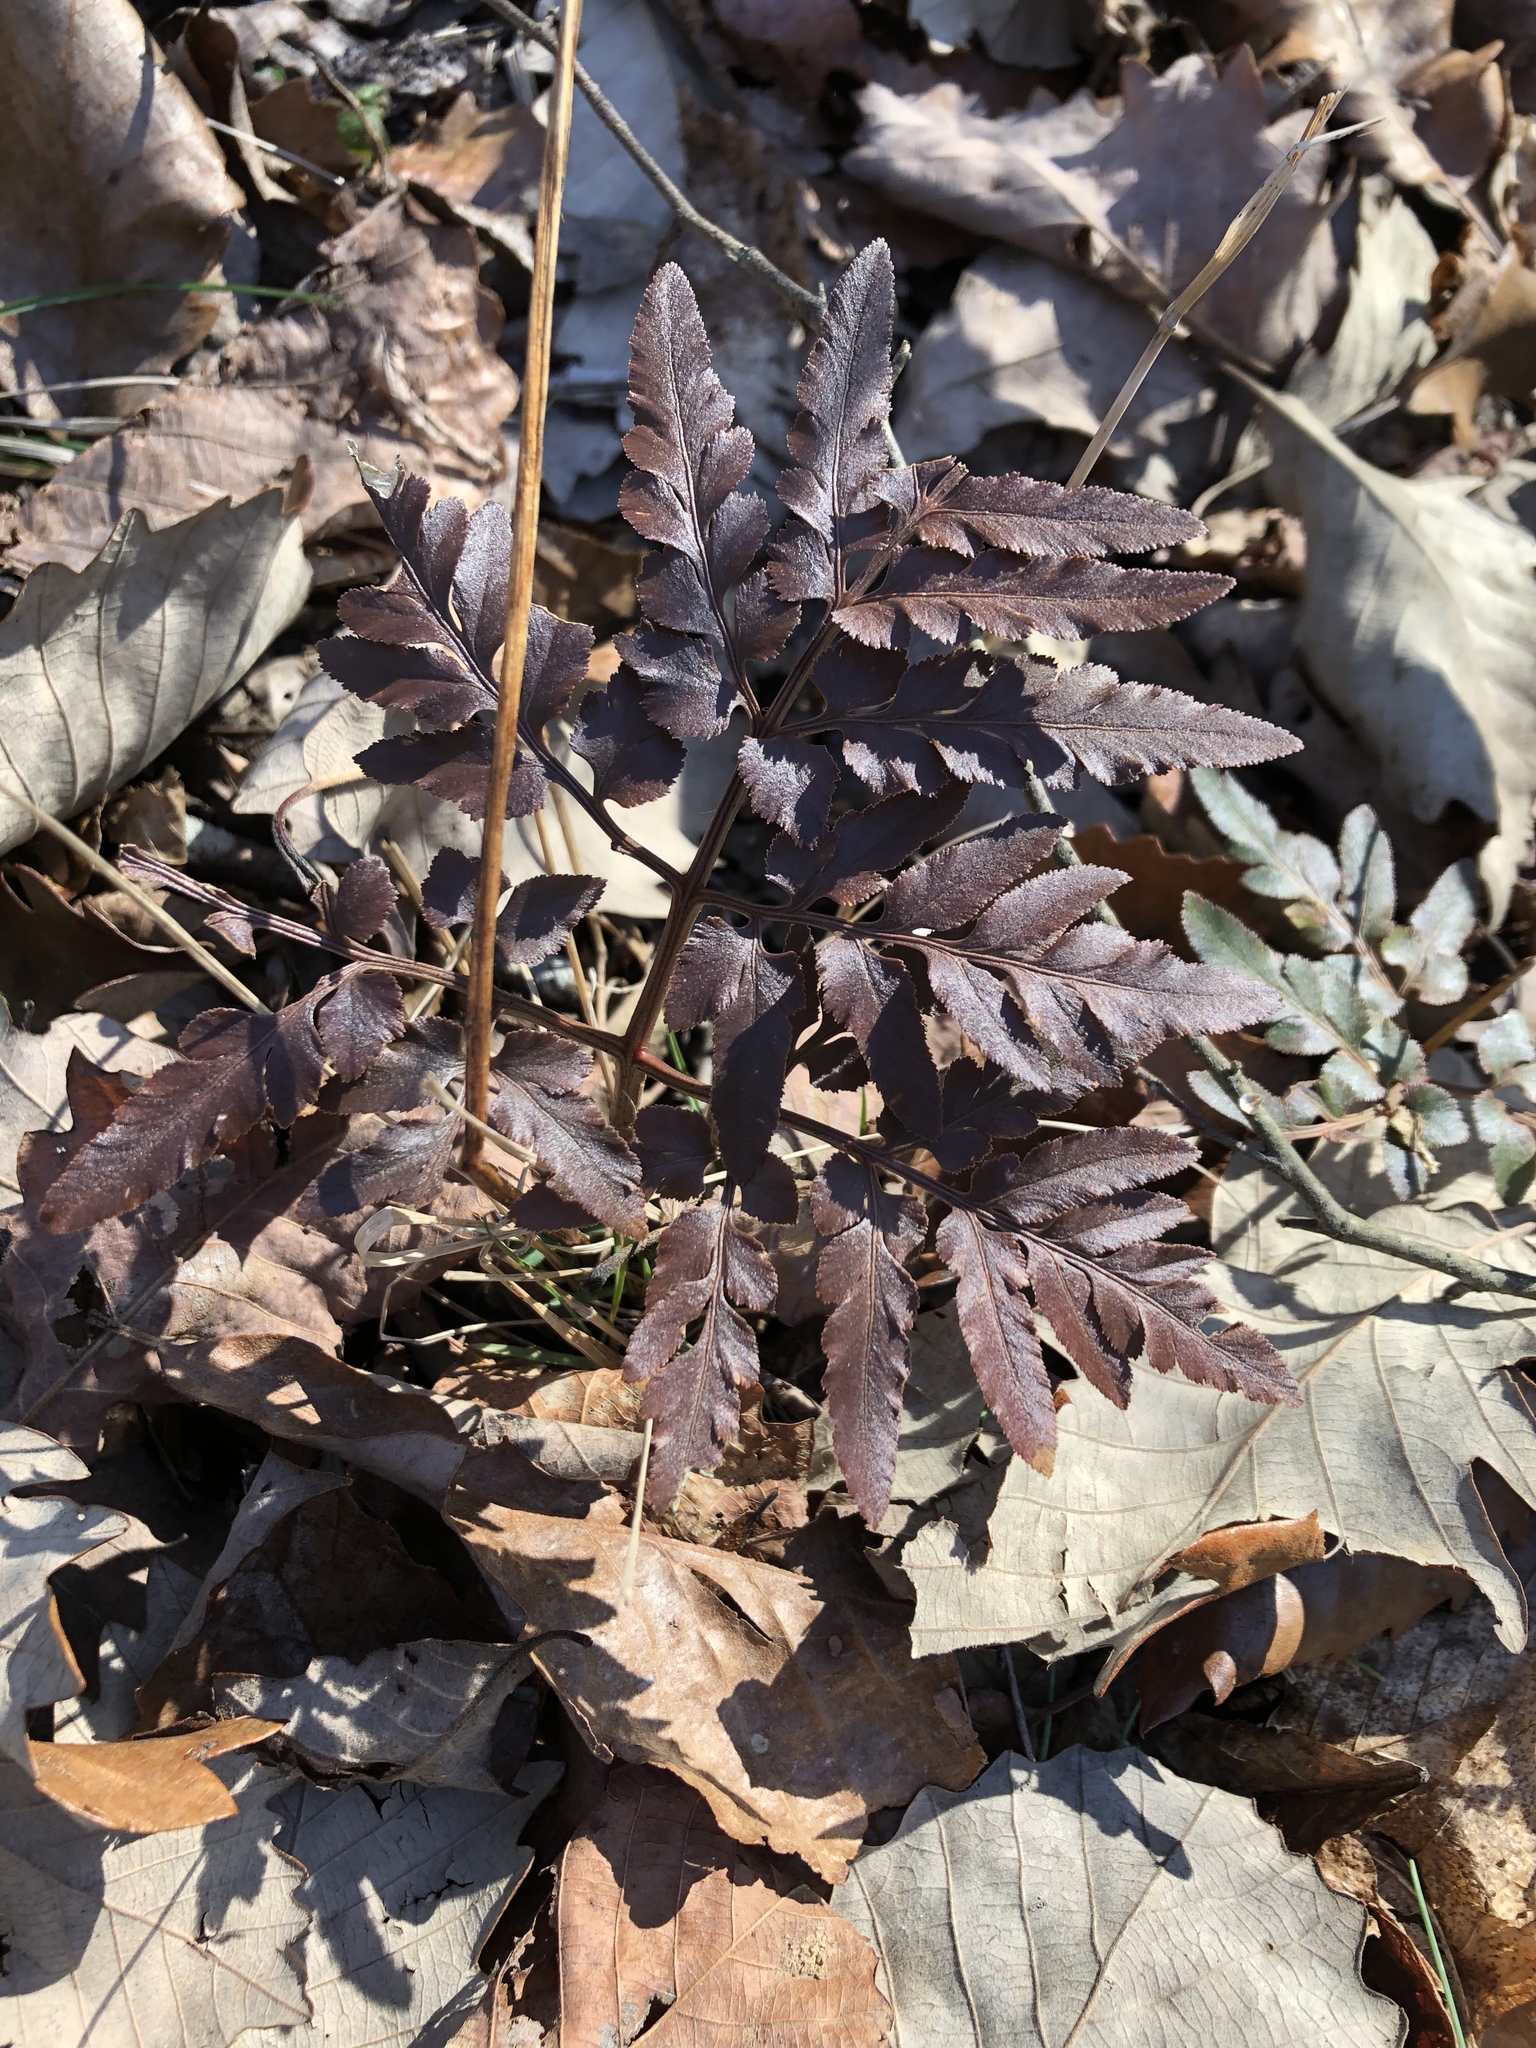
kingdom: Plantae
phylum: Tracheophyta
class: Polypodiopsida
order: Ophioglossales
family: Ophioglossaceae
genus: Sceptridium
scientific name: Sceptridium dissectum
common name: Cut-leaved grapefern
